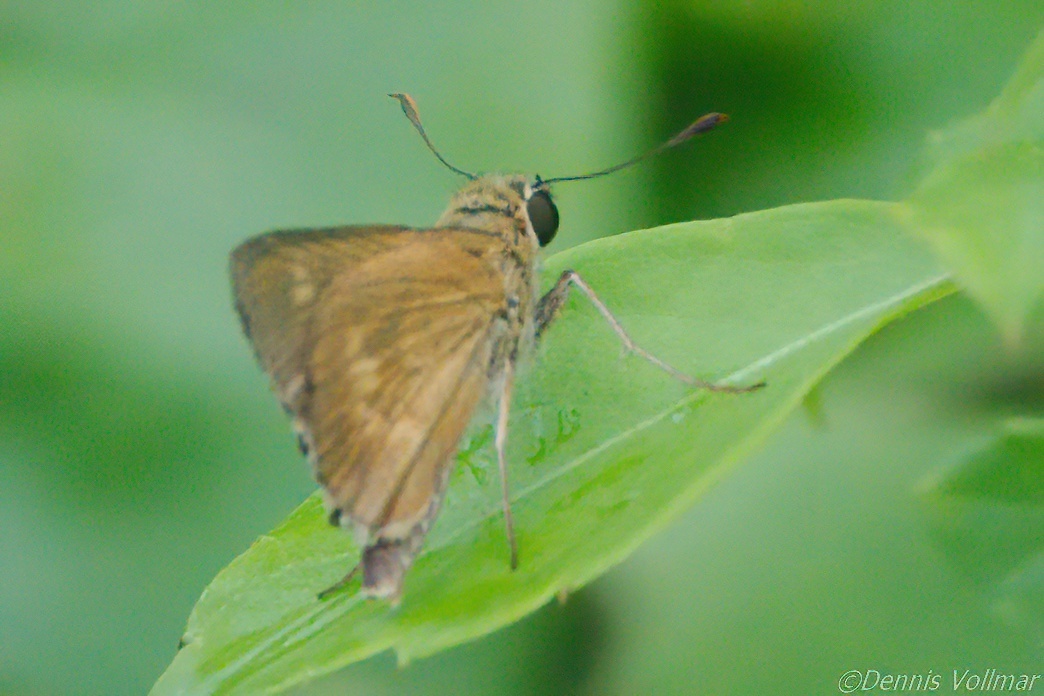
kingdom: Animalia
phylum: Arthropoda
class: Insecta
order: Lepidoptera
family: Hesperiidae
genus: Polites
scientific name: Polites otho
